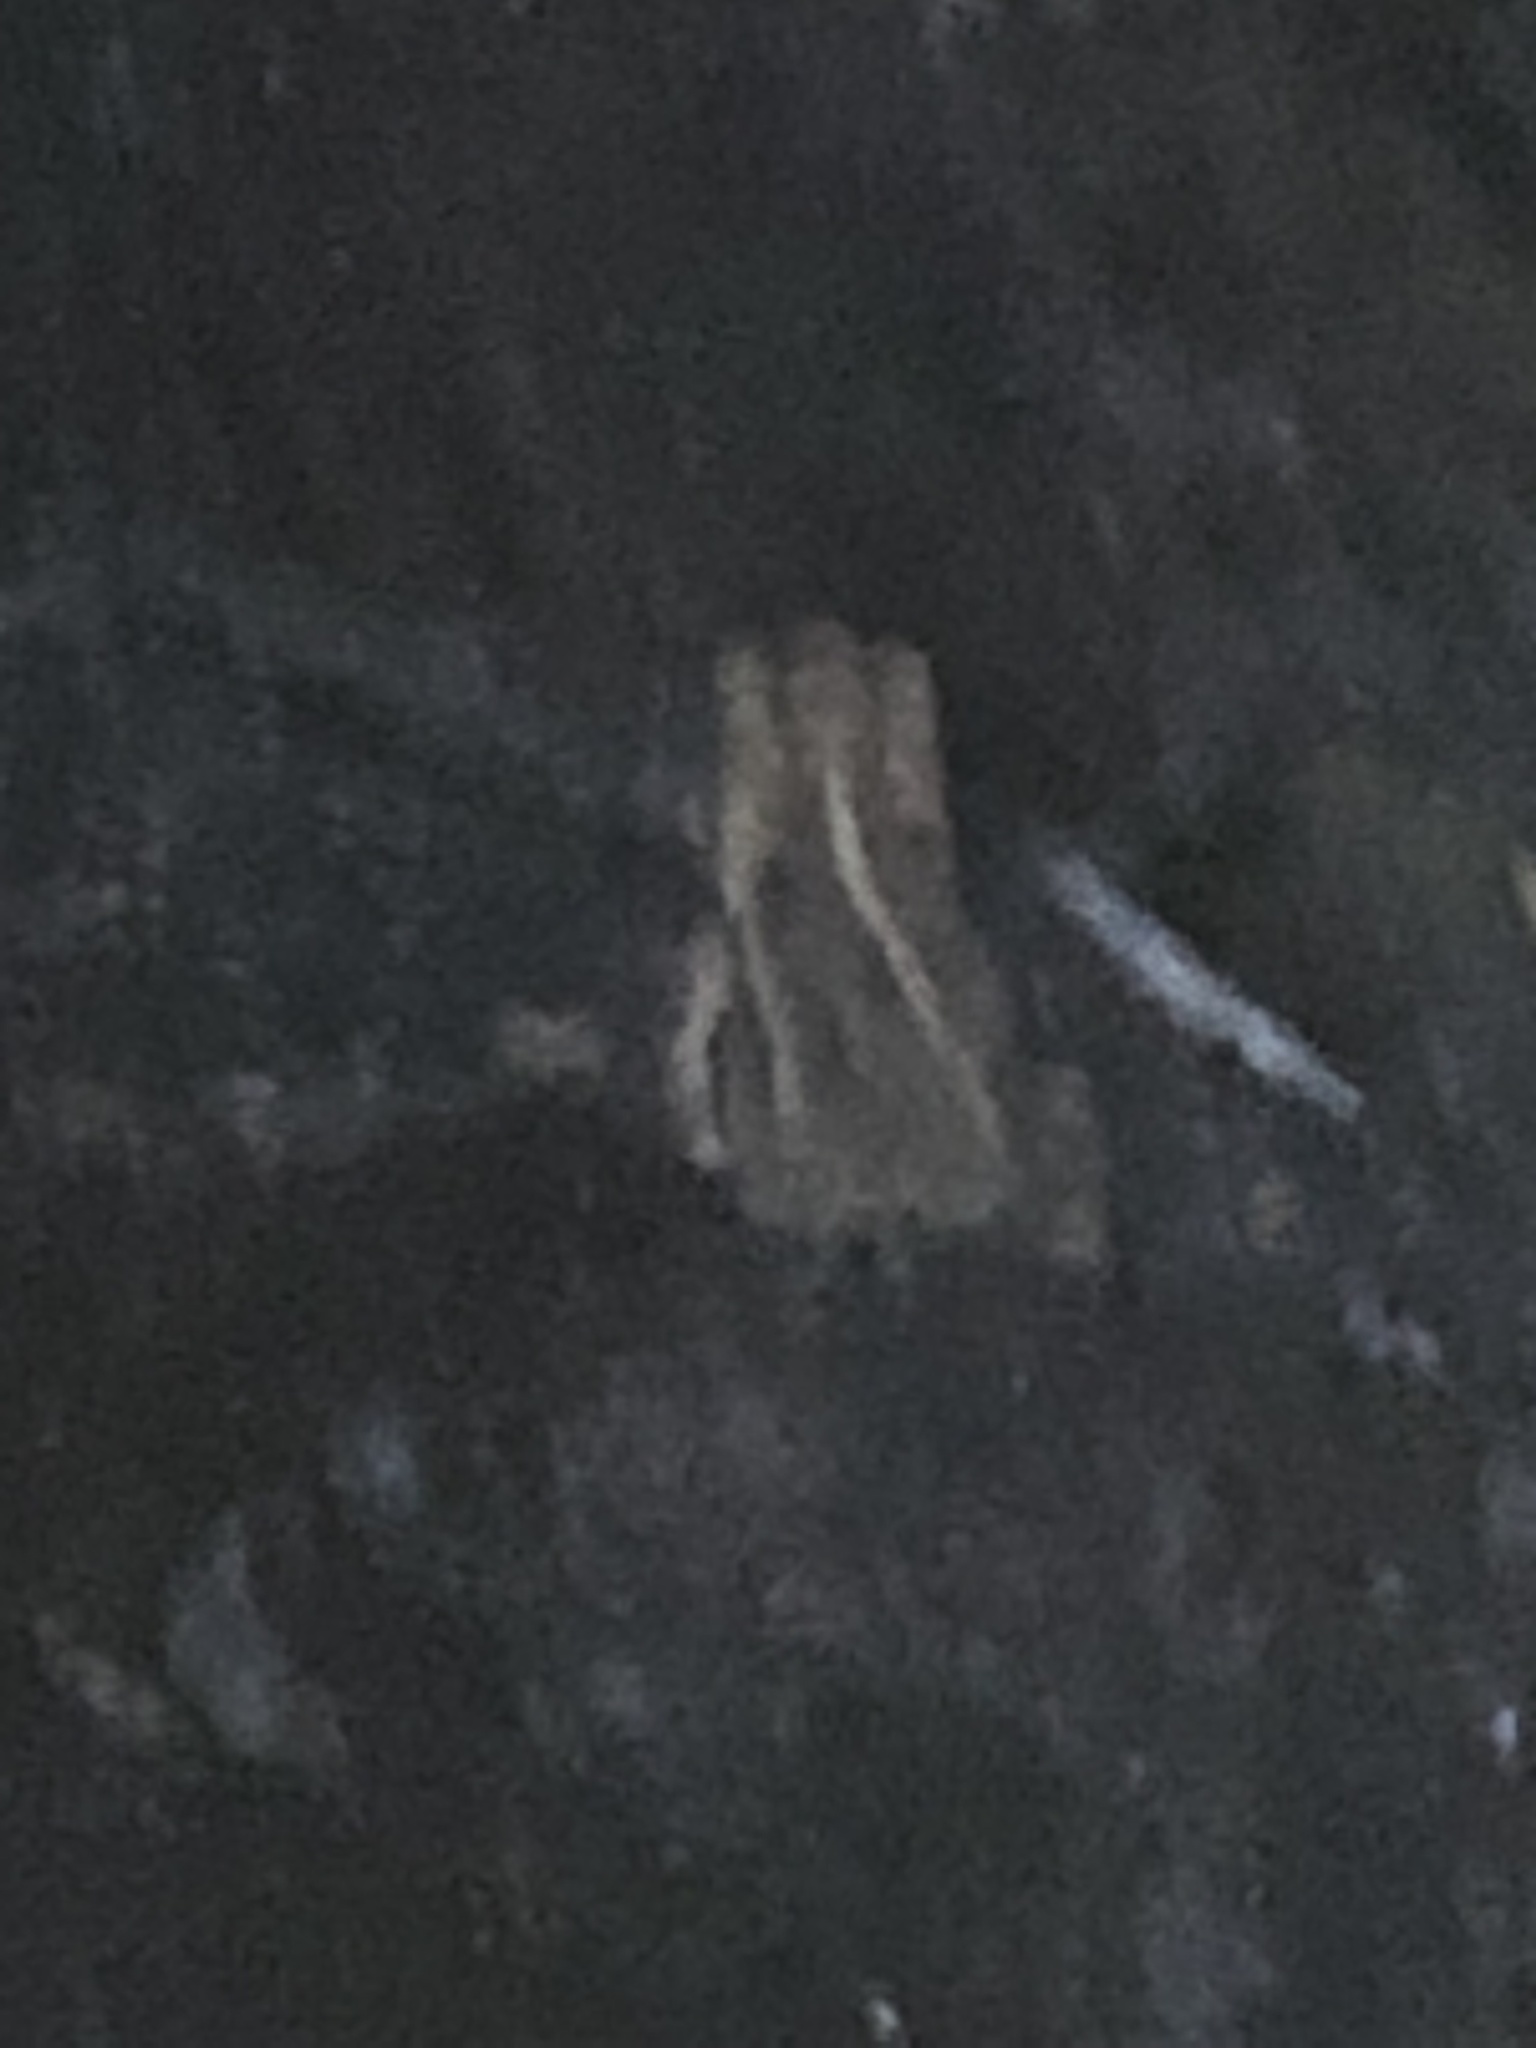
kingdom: Animalia
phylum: Chordata
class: Amphibia
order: Anura
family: Bufonidae
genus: Incilius
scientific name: Incilius nebulifer
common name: Gulf coast toad
